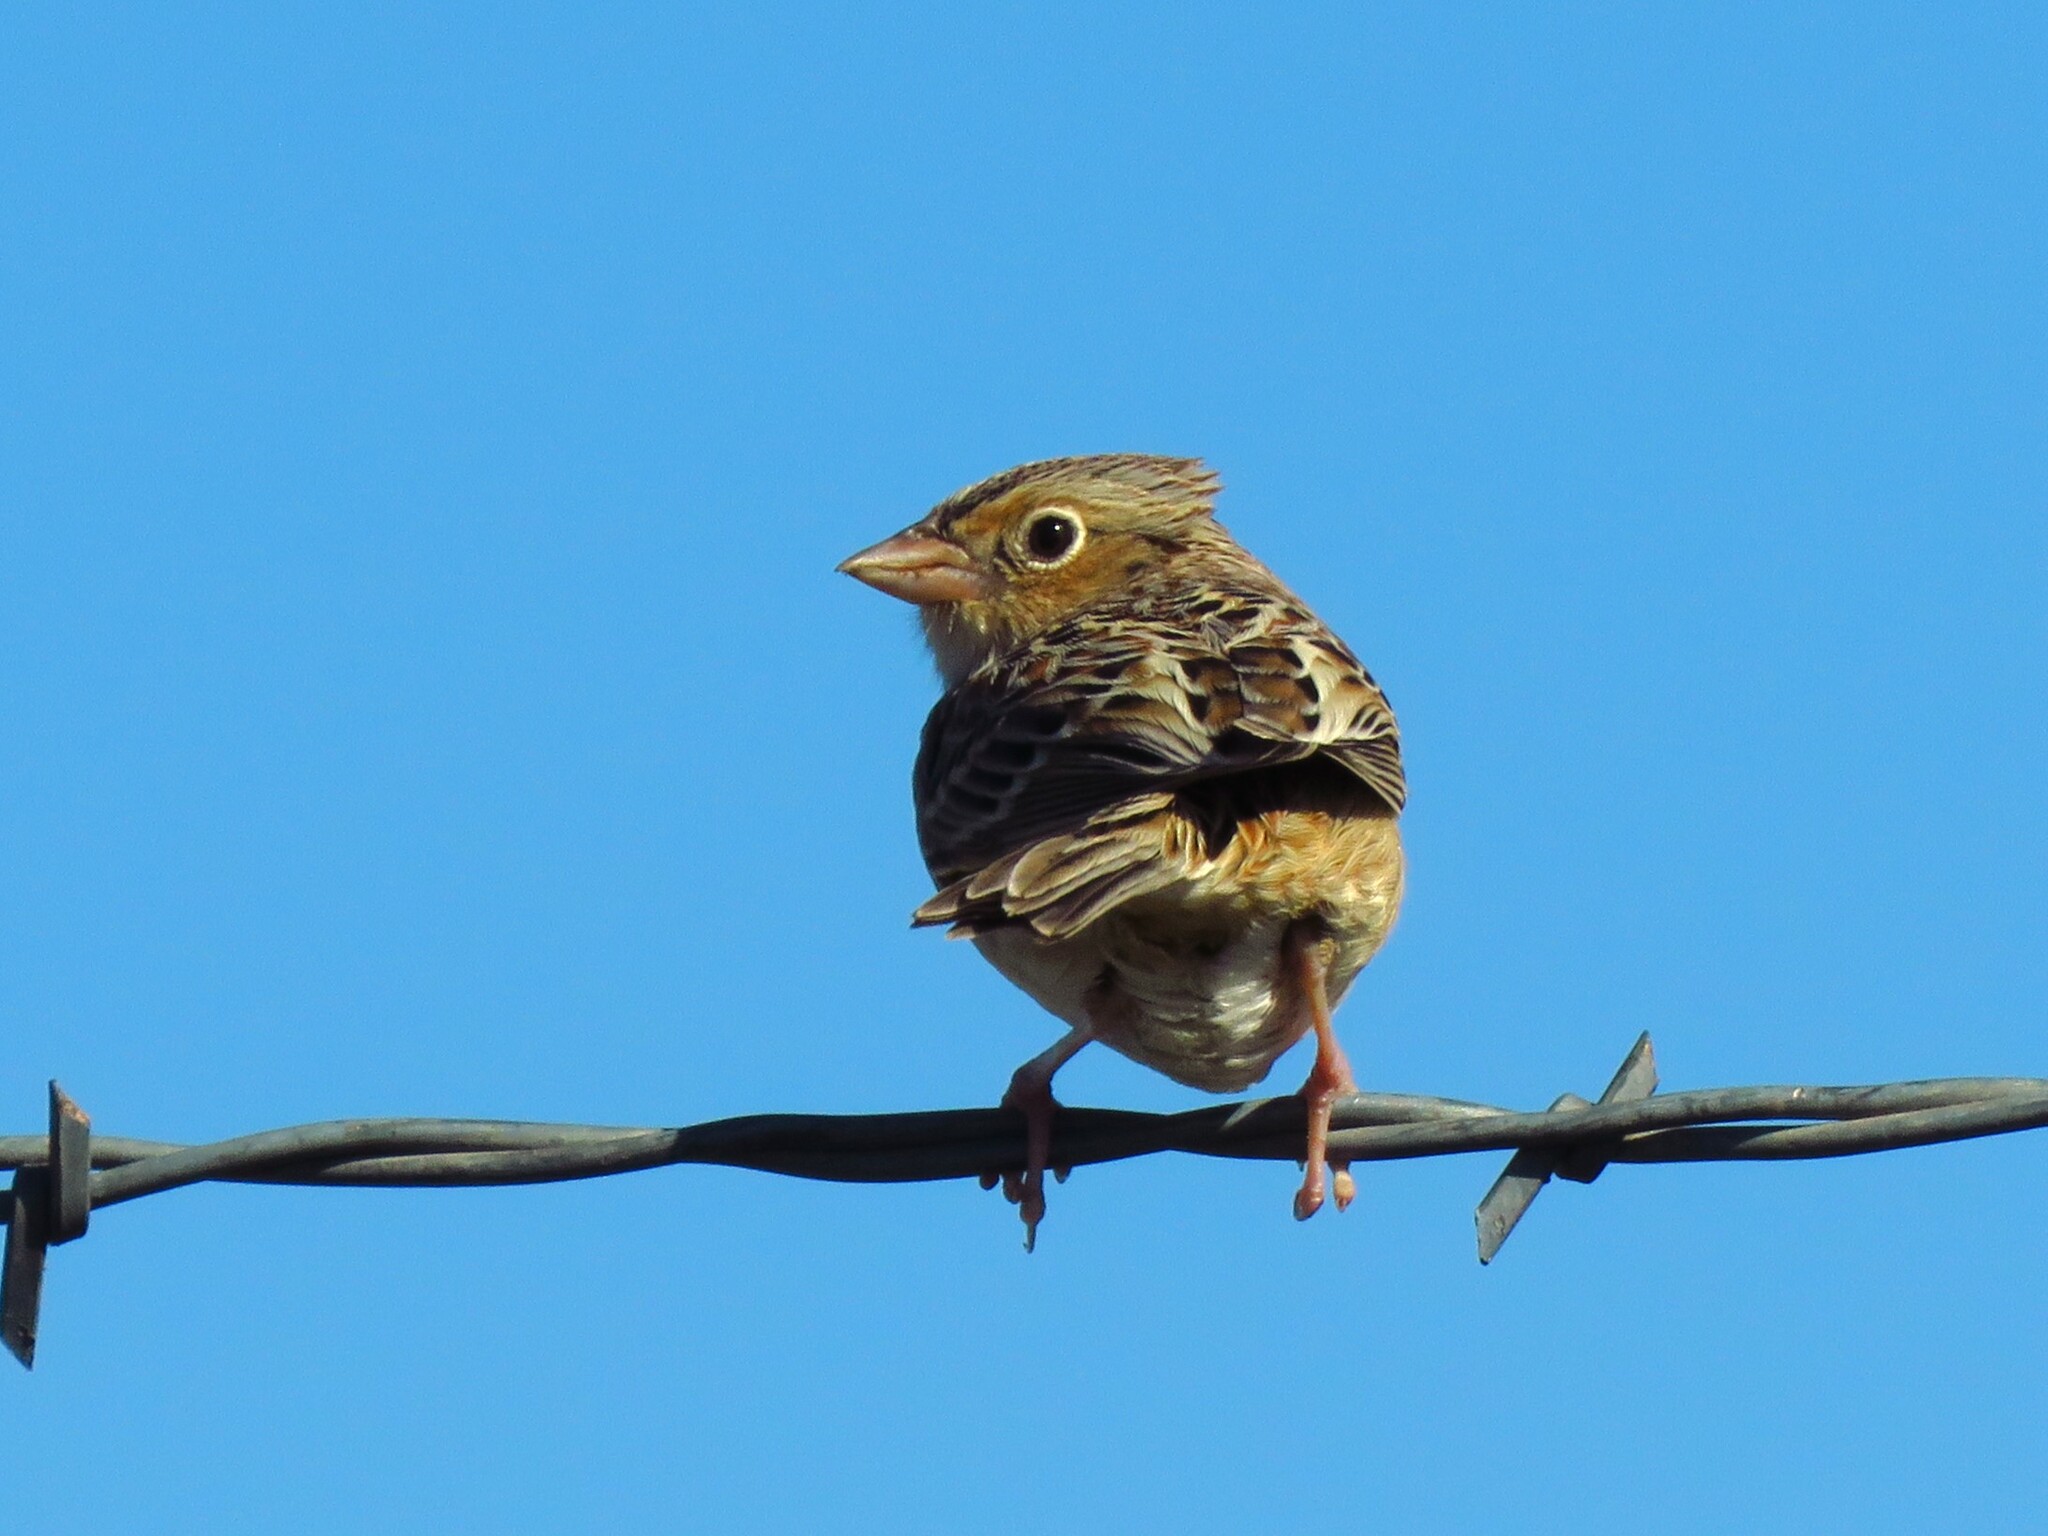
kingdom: Animalia
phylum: Chordata
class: Aves
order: Passeriformes
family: Passerellidae
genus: Ammodramus
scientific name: Ammodramus savannarum
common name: Grasshopper sparrow
